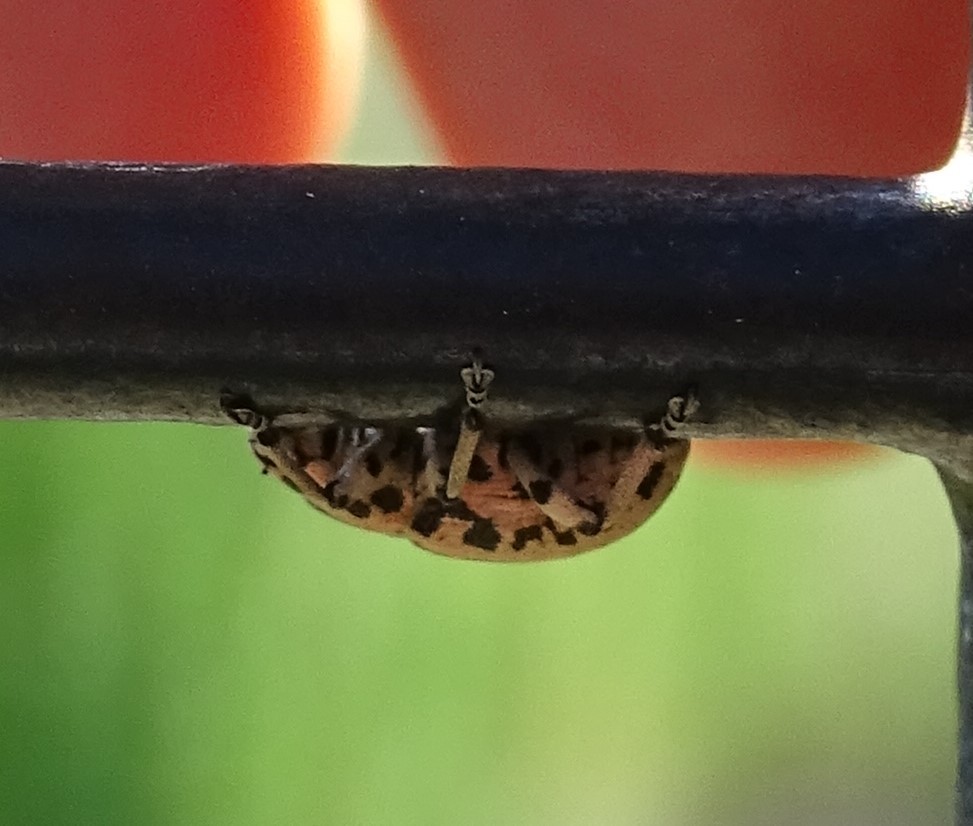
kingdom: Animalia
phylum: Arthropoda
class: Insecta
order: Coleoptera
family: Curculionidae
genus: Eudiagogus
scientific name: Eudiagogus rosenschoeldi
